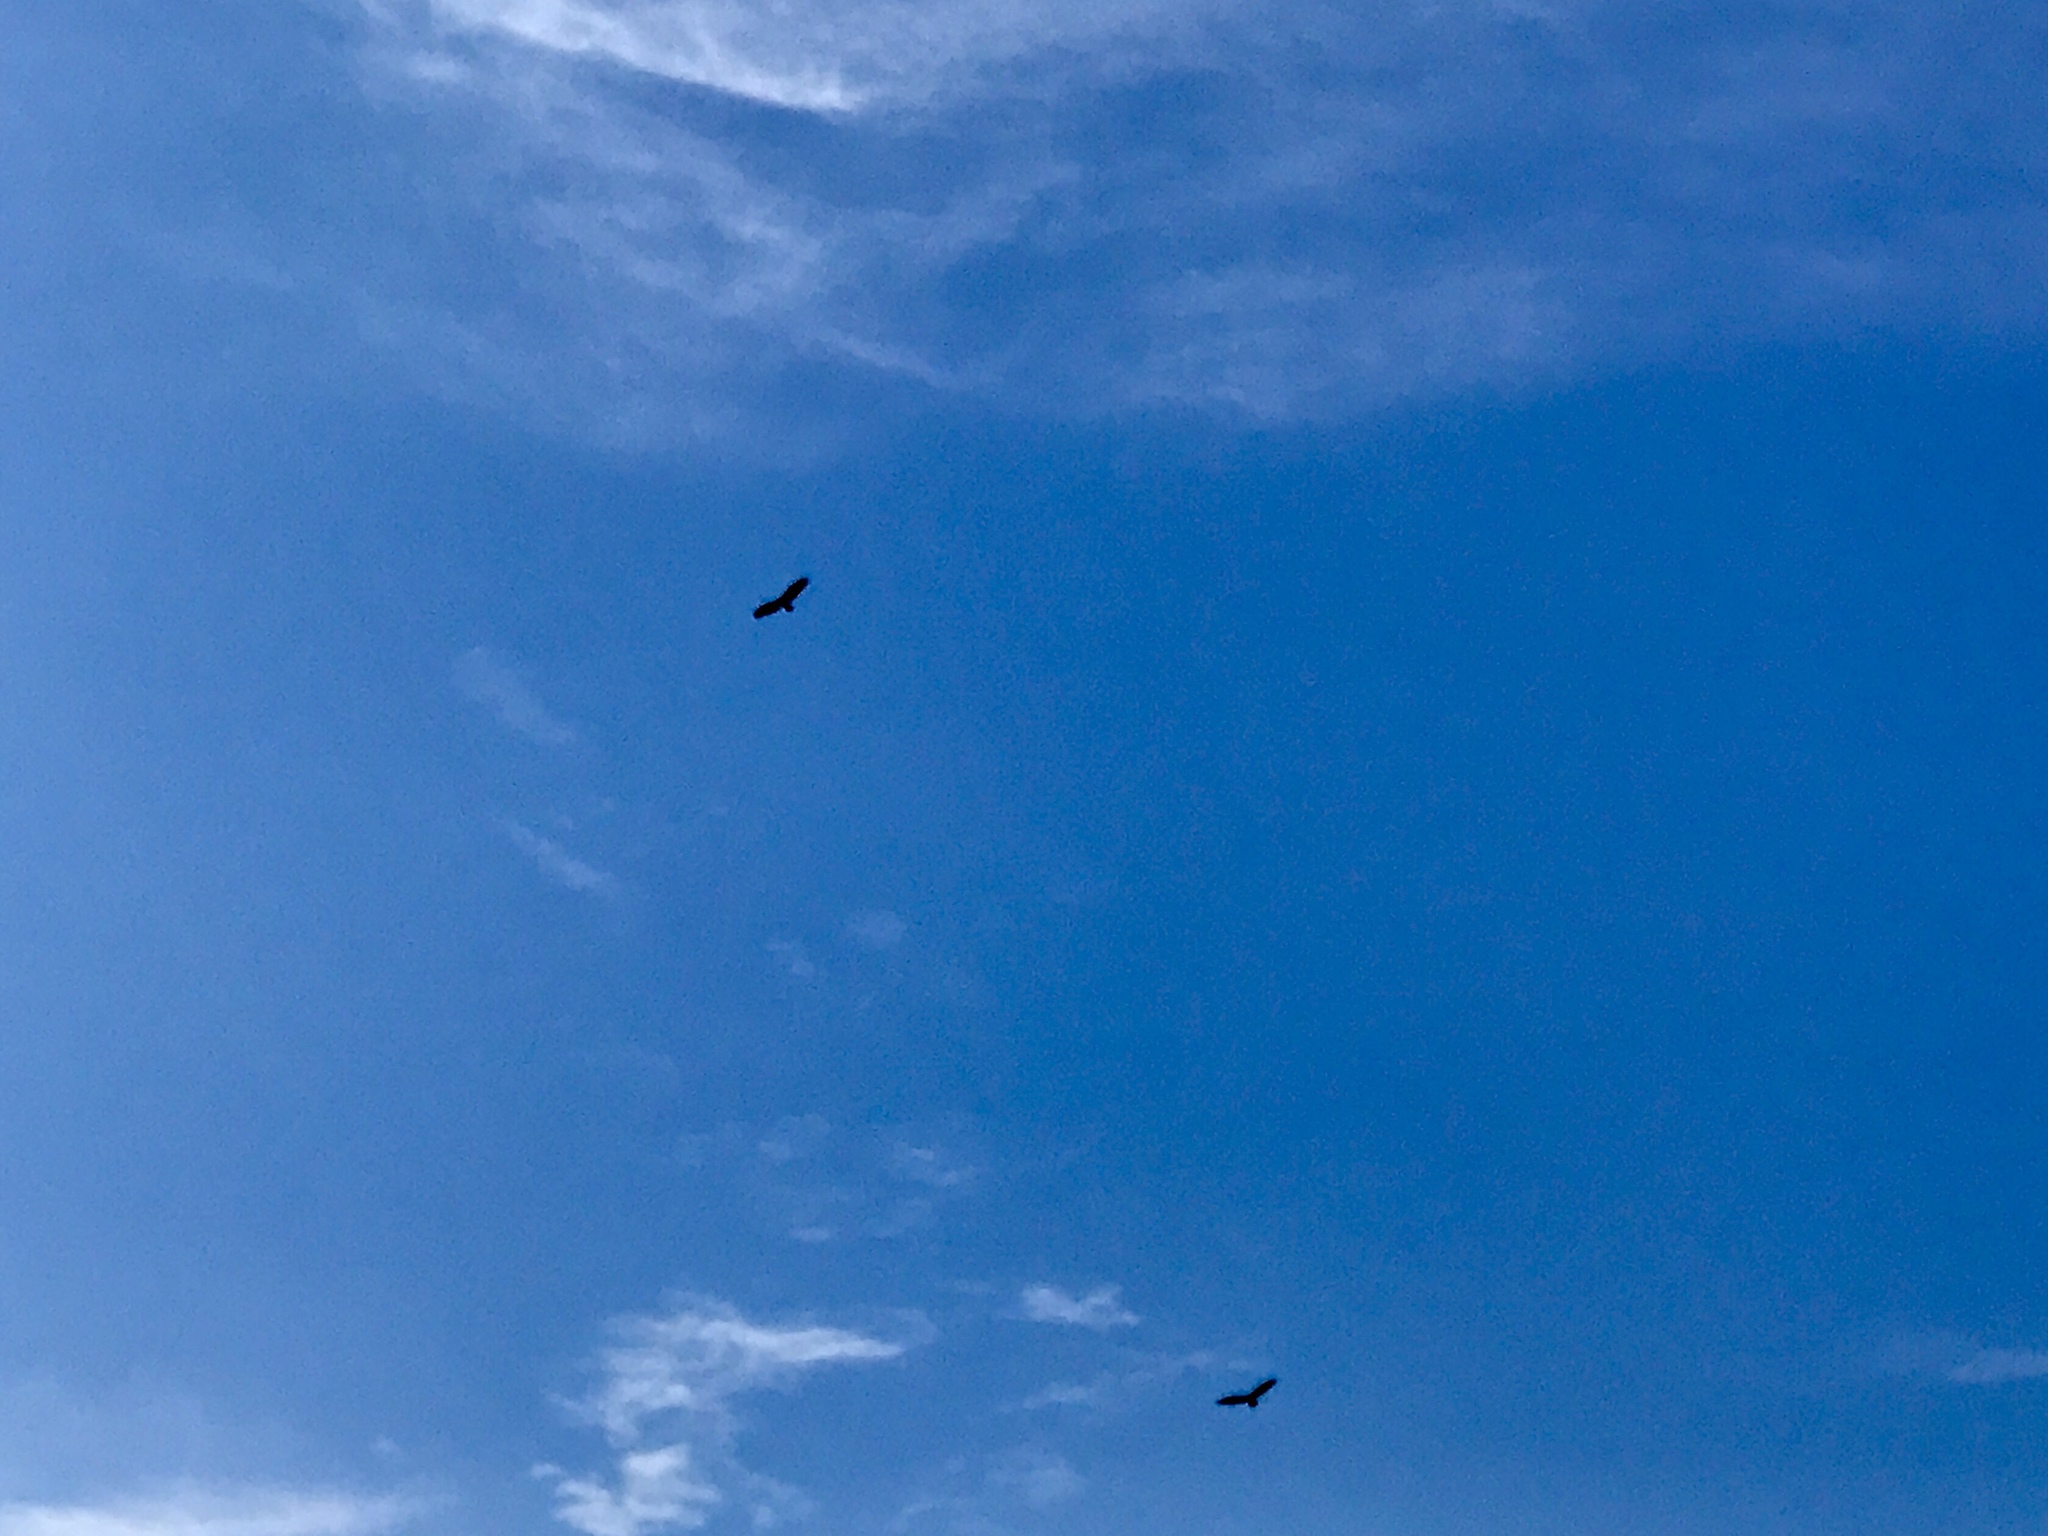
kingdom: Animalia
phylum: Chordata
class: Aves
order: Accipitriformes
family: Cathartidae
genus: Cathartes
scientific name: Cathartes aura
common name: Turkey vulture
